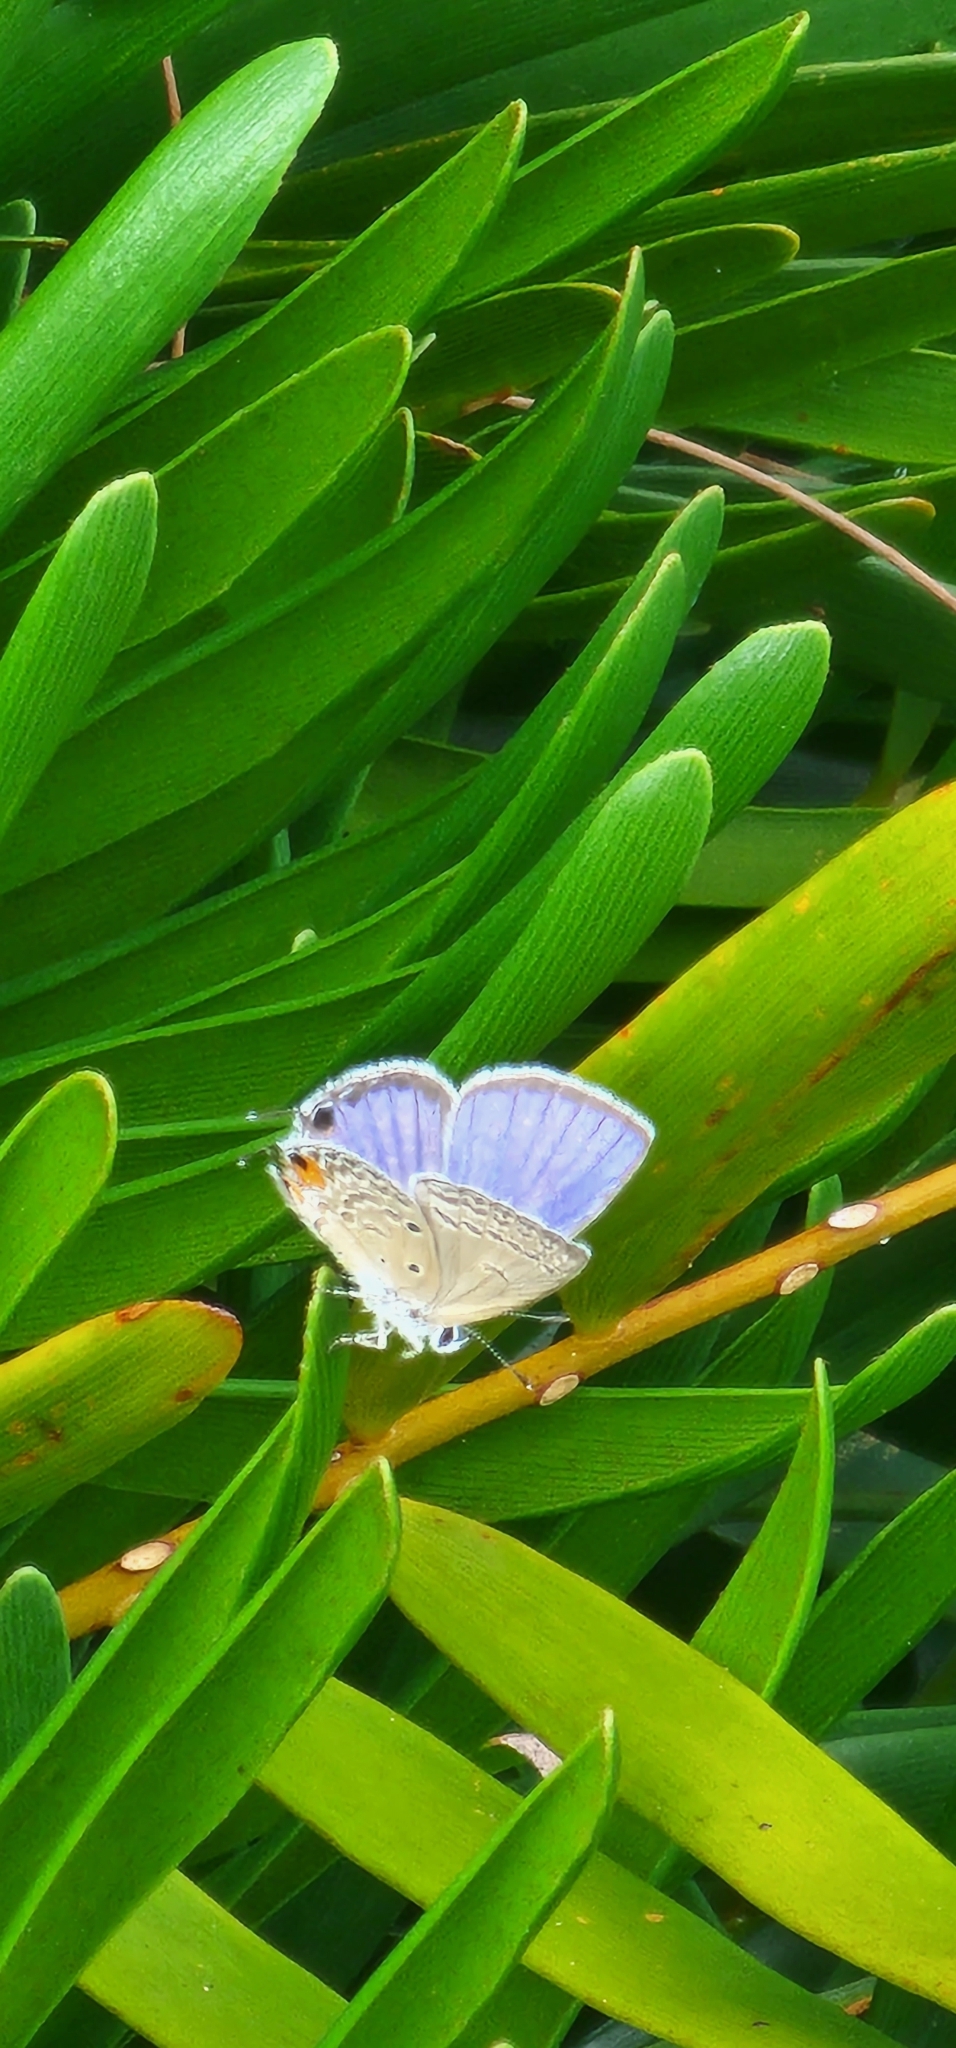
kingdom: Animalia
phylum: Arthropoda
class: Insecta
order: Lepidoptera
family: Lycaenidae
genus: Luthrodes
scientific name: Luthrodes pandava
